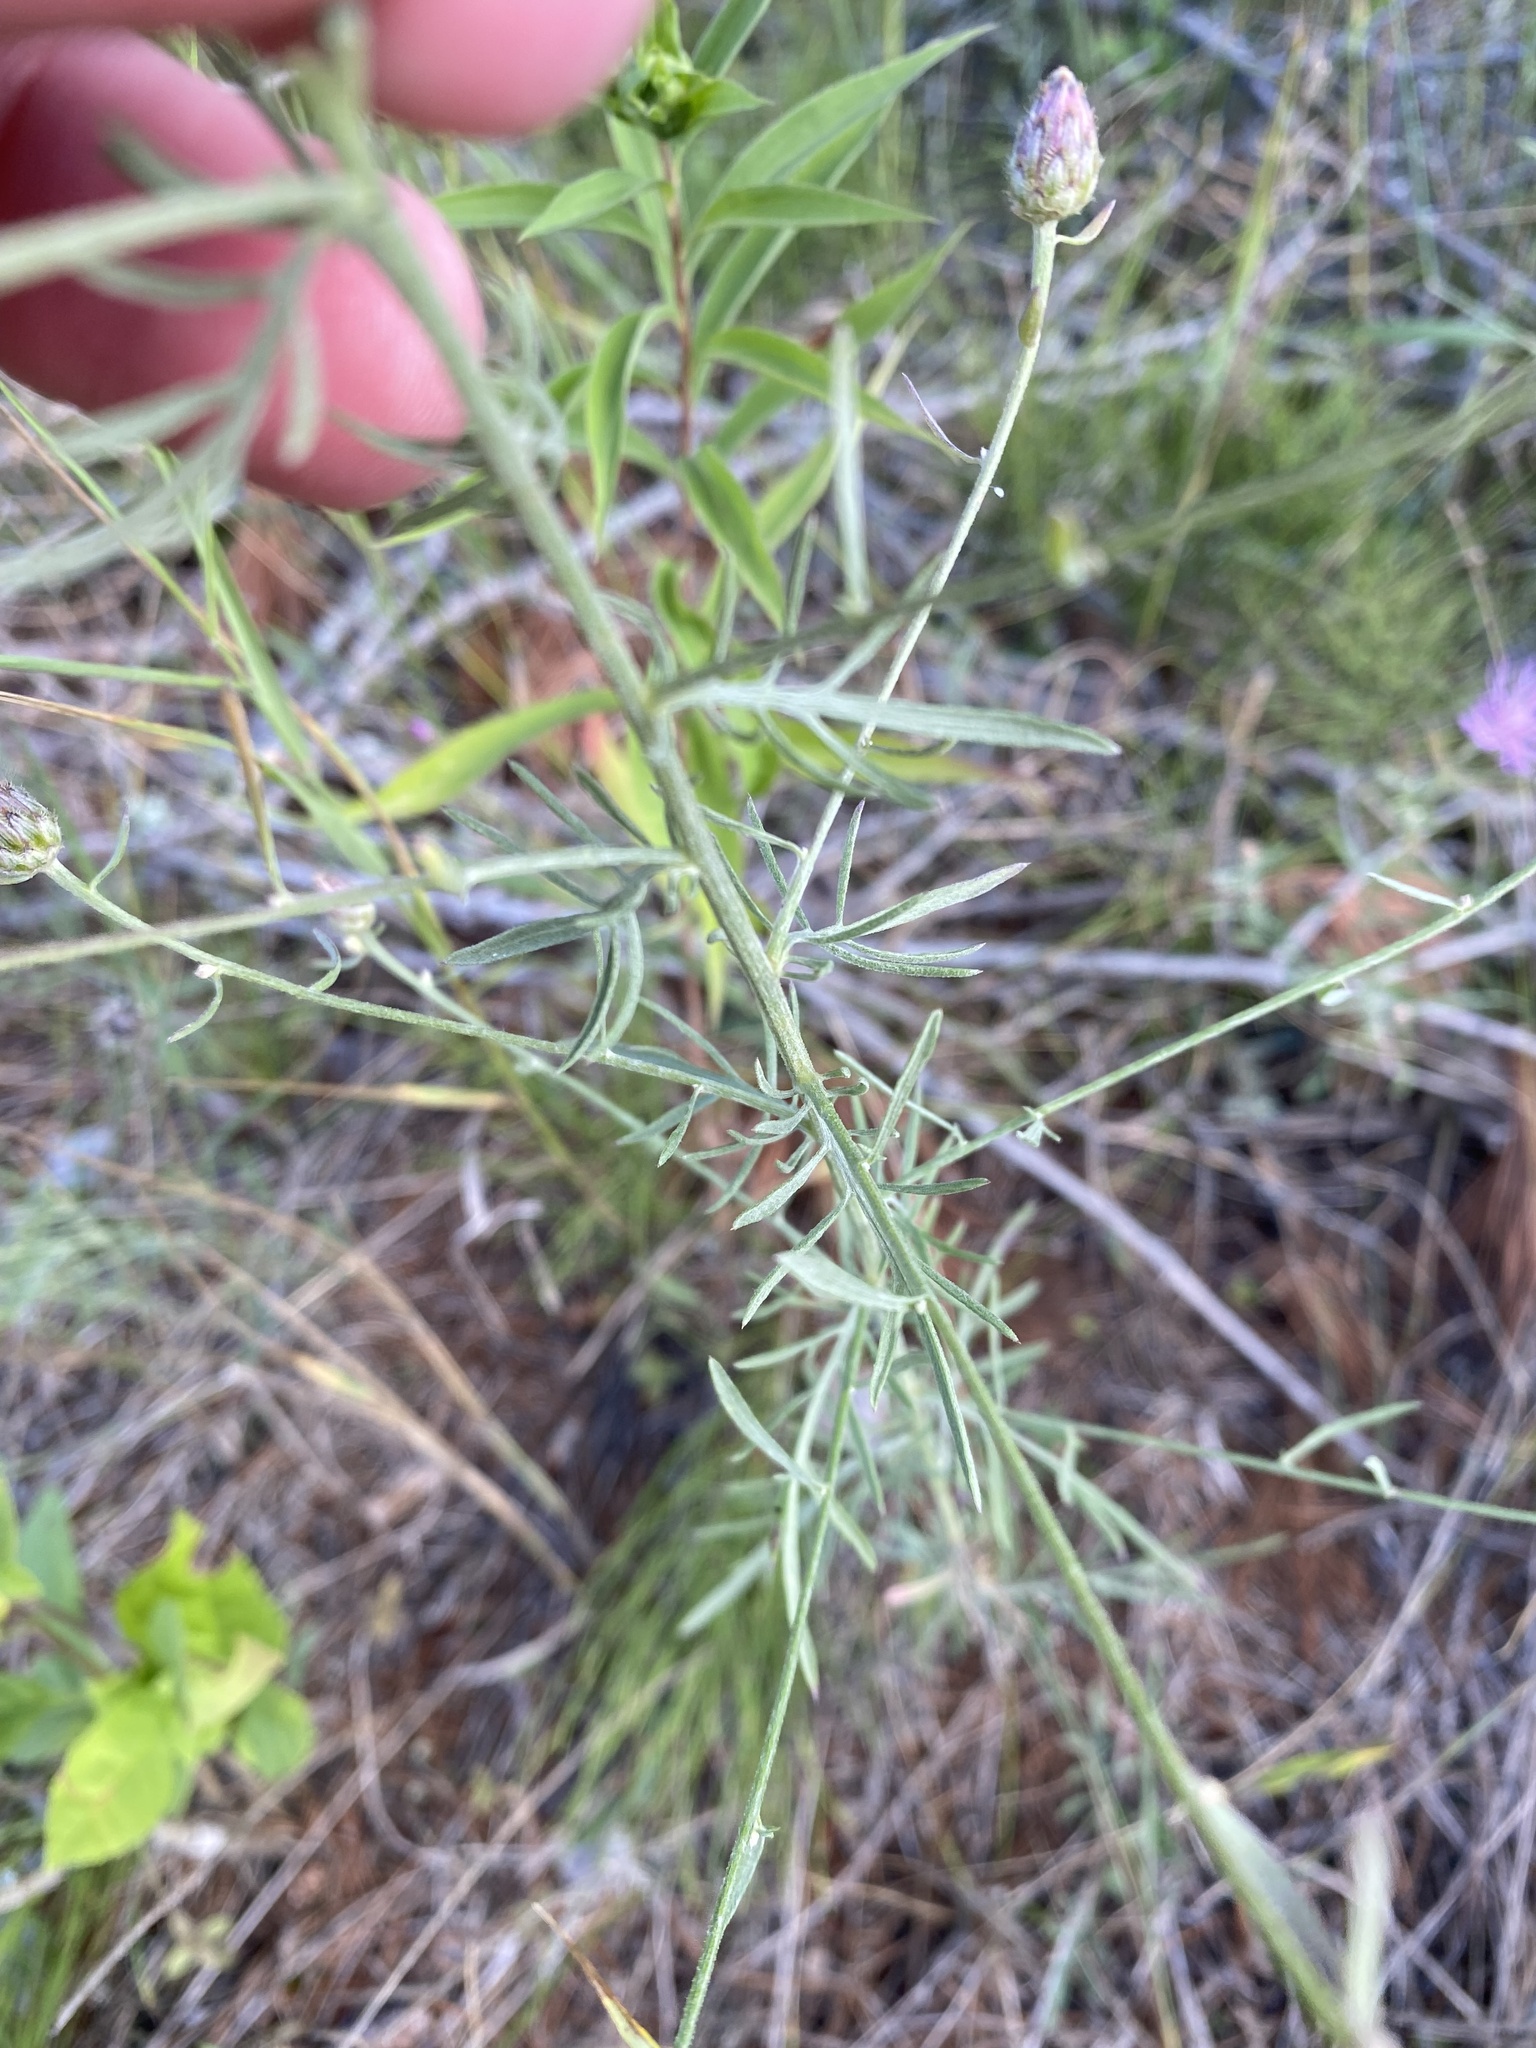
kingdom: Plantae
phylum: Tracheophyta
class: Magnoliopsida
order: Asterales
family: Asteraceae
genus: Centaurea
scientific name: Centaurea stoebe
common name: Spotted knapweed
